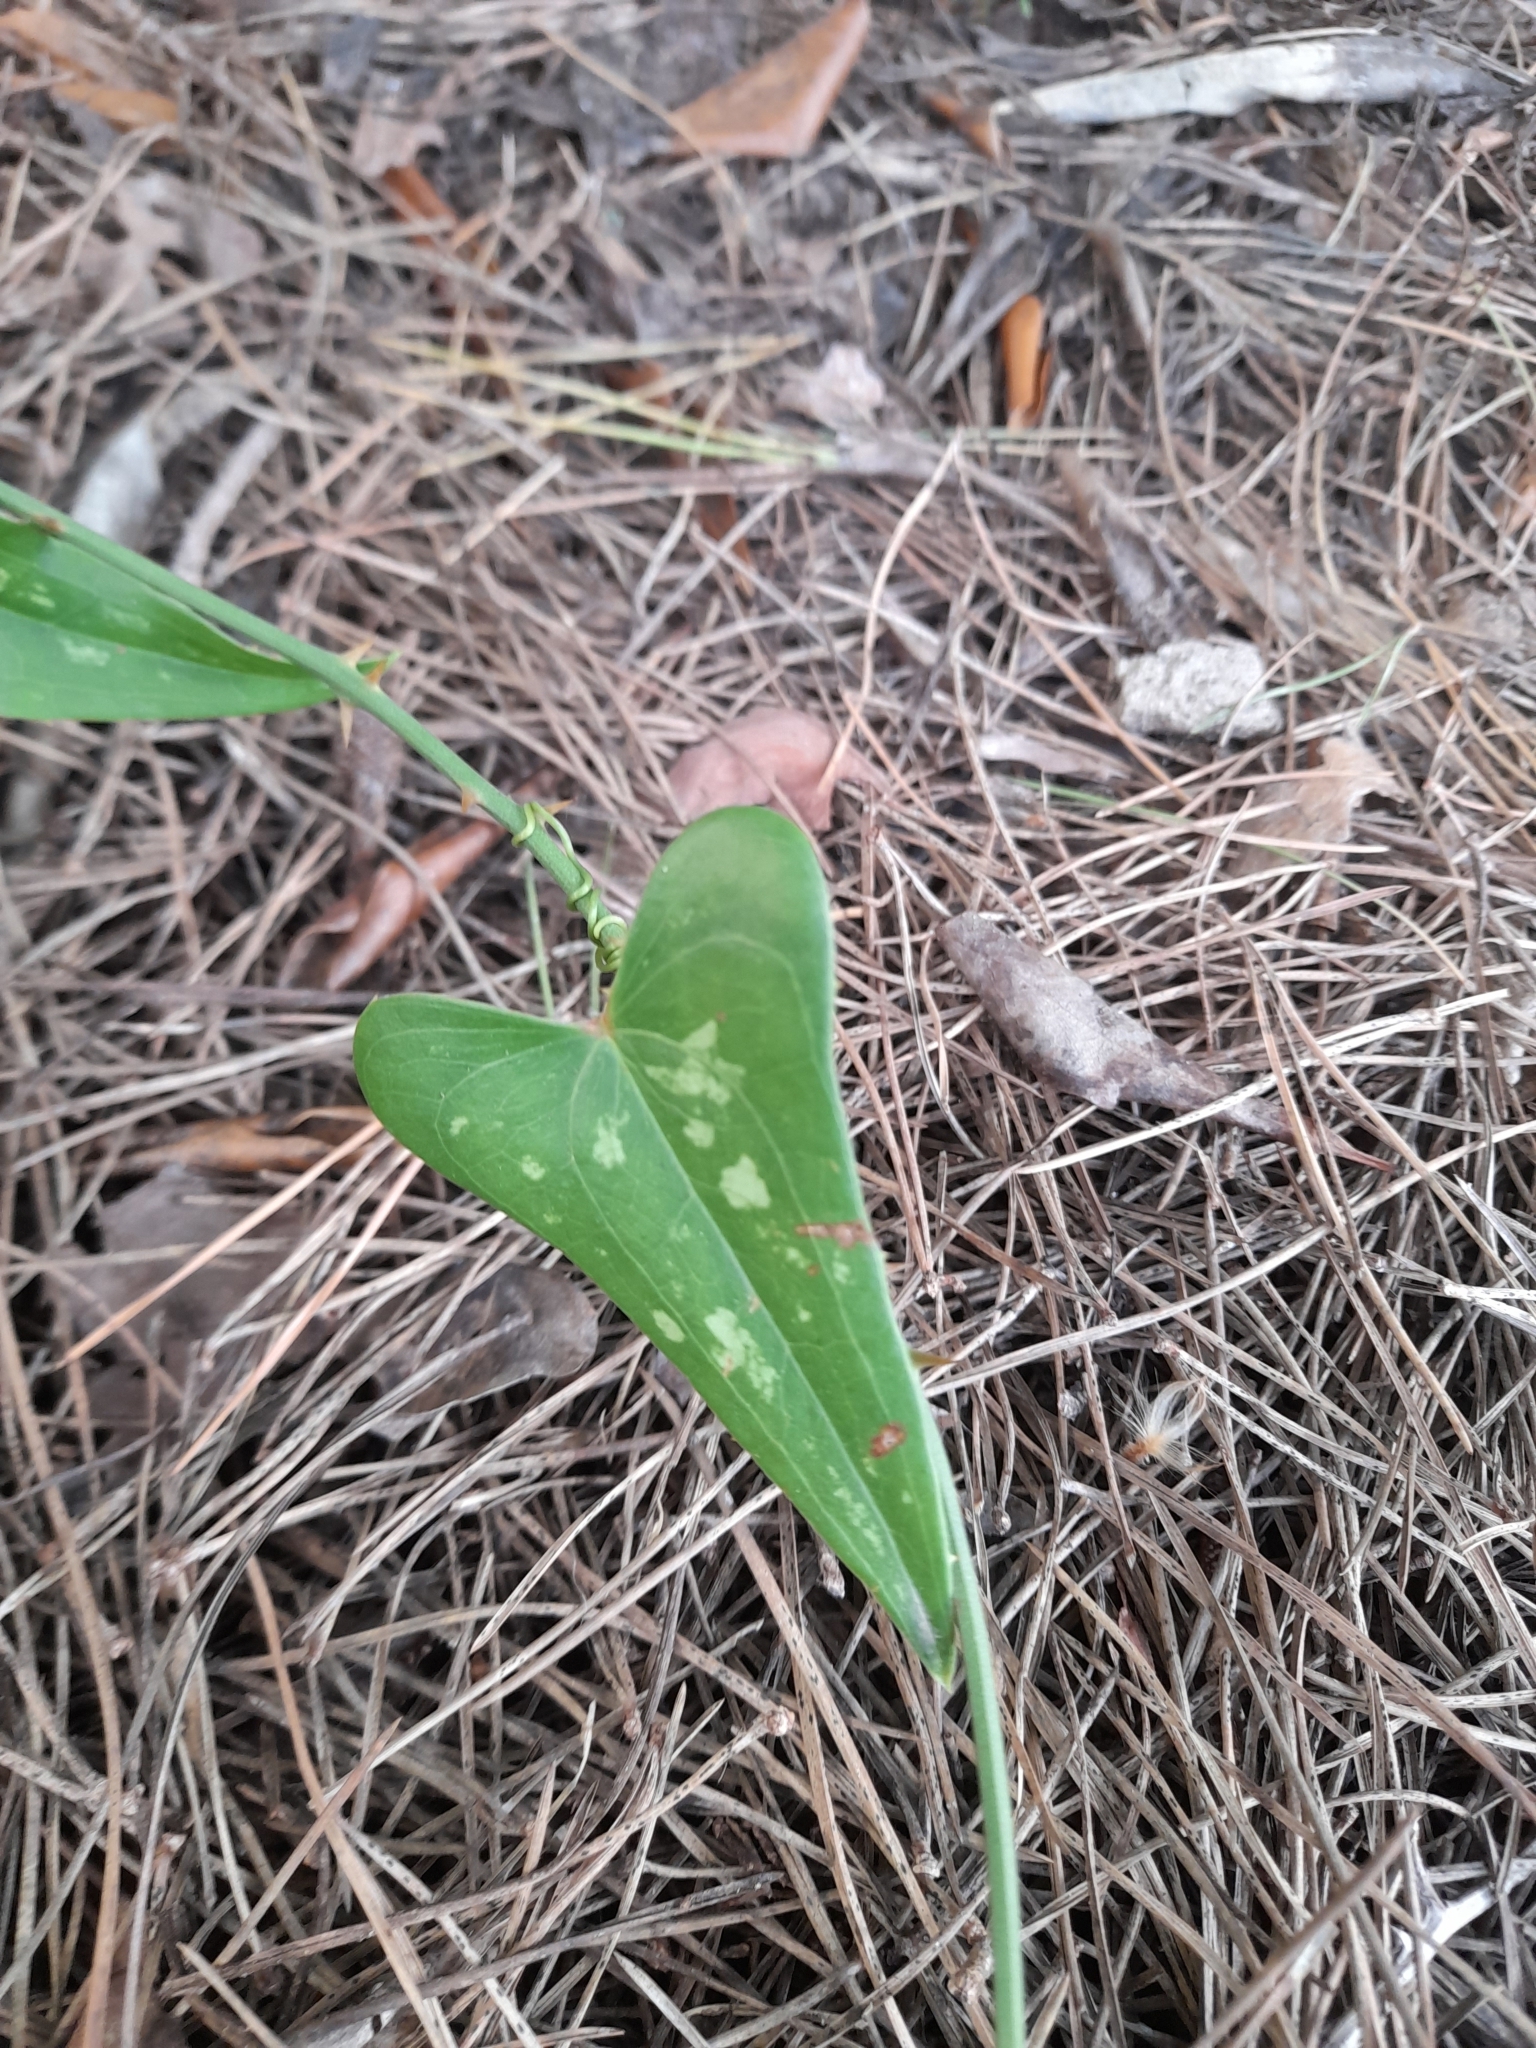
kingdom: Plantae
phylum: Tracheophyta
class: Liliopsida
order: Liliales
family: Smilacaceae
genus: Smilax
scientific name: Smilax aspera
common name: Common smilax
